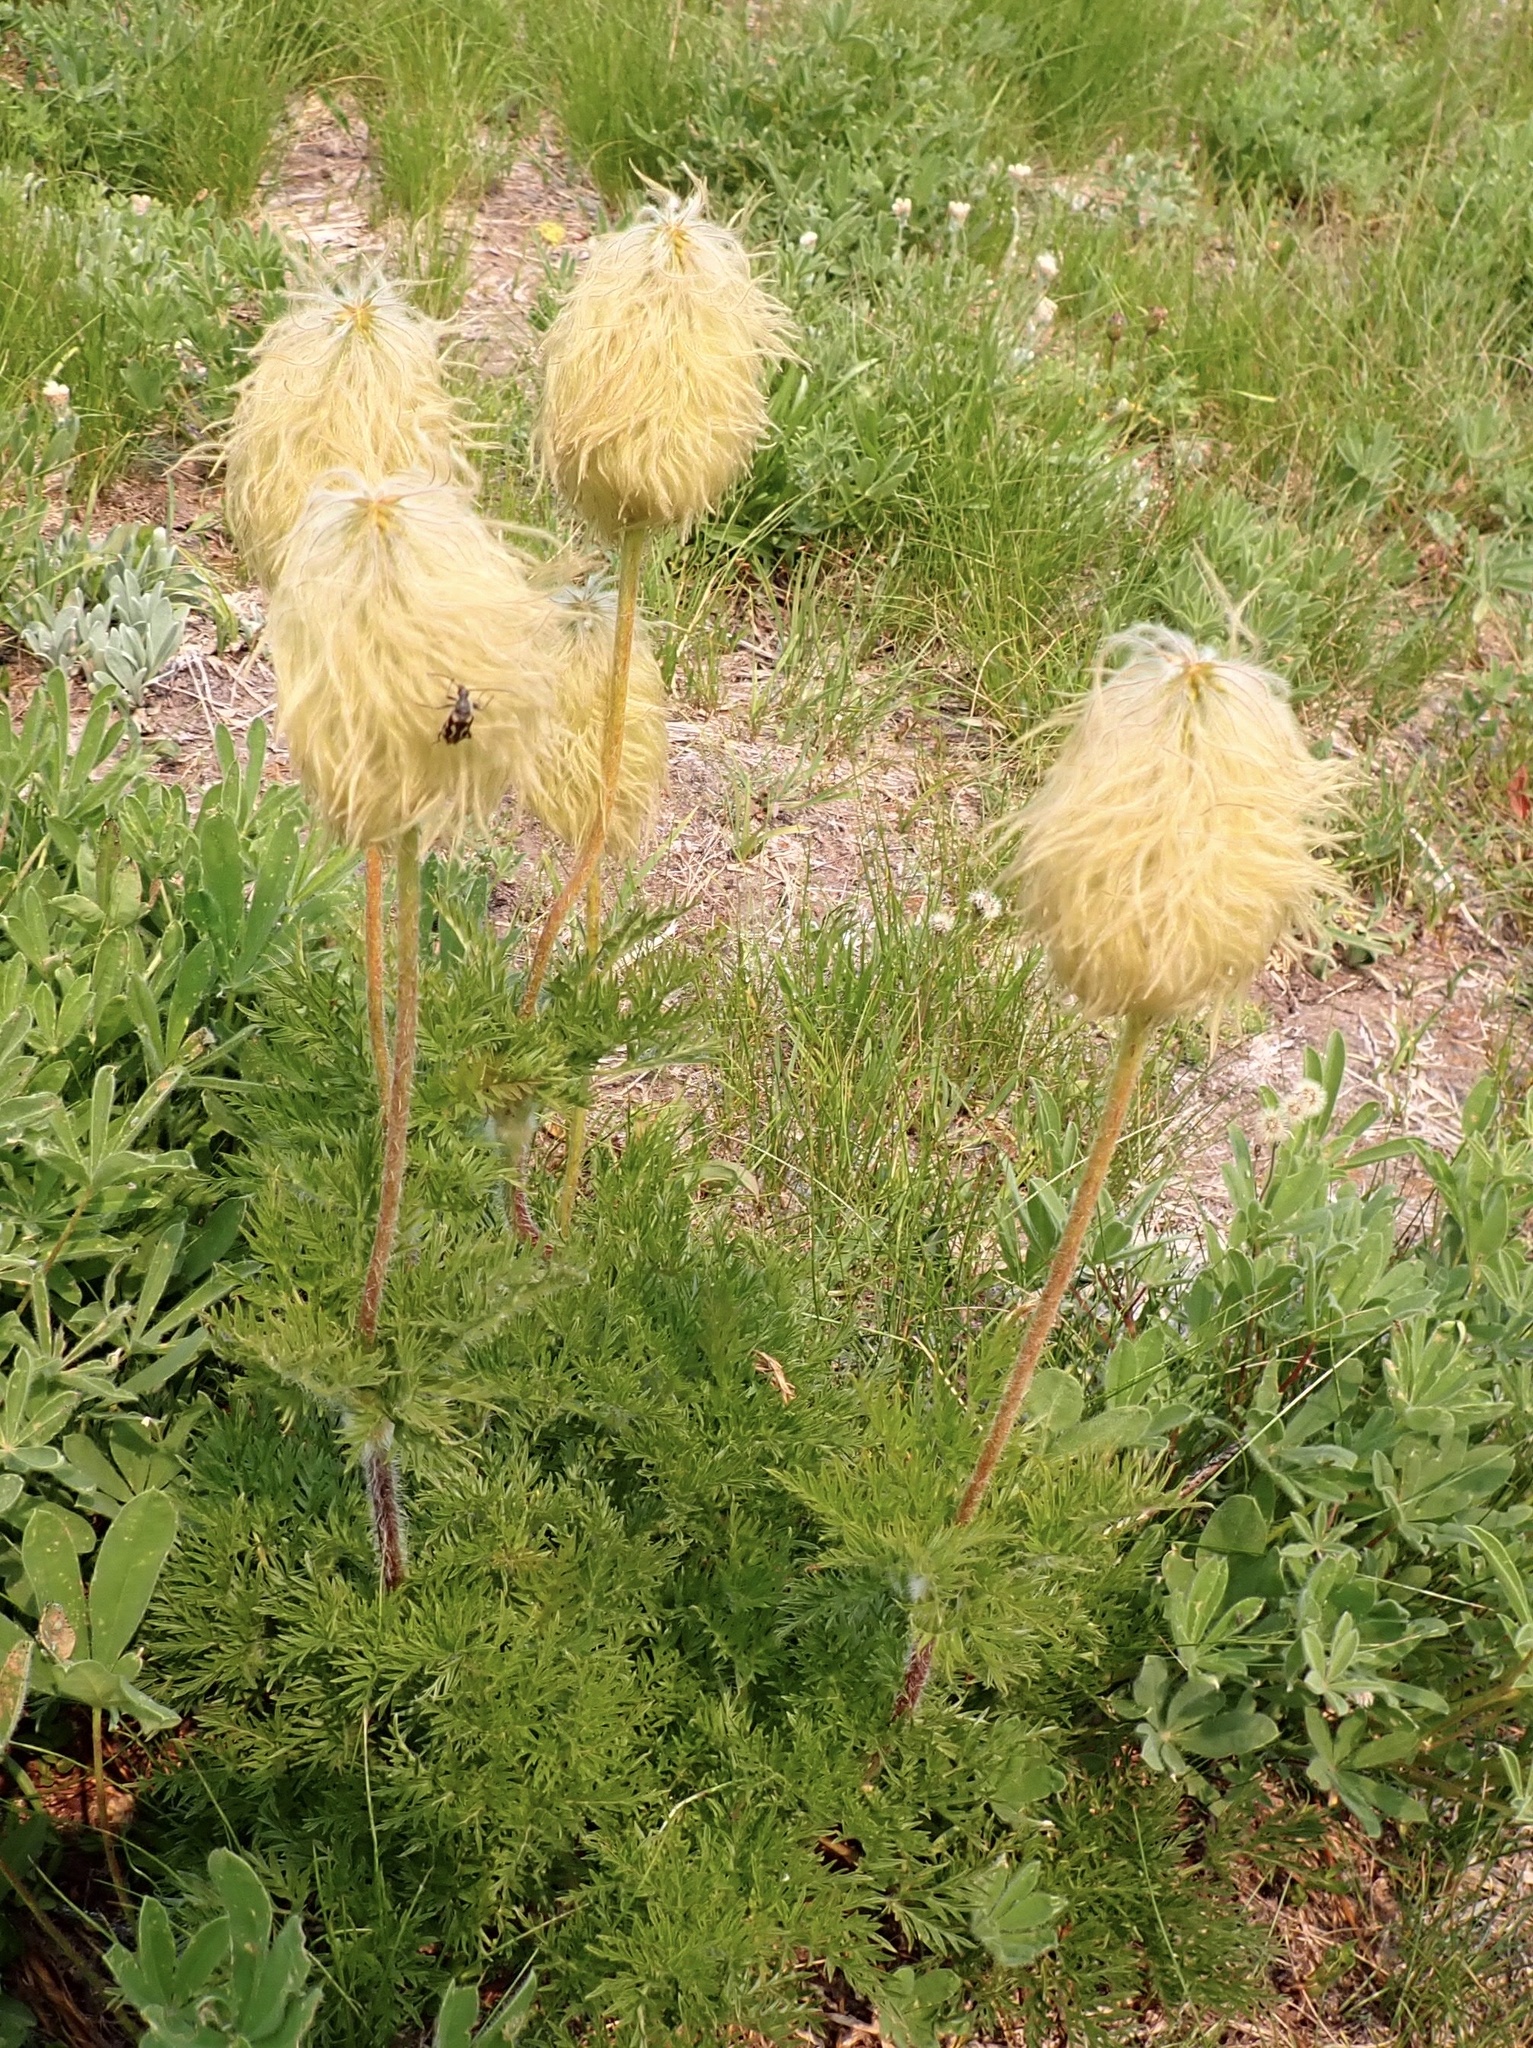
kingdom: Plantae
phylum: Tracheophyta
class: Magnoliopsida
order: Ranunculales
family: Ranunculaceae
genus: Pulsatilla
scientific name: Pulsatilla occidentalis
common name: Mountain pasqueflower
